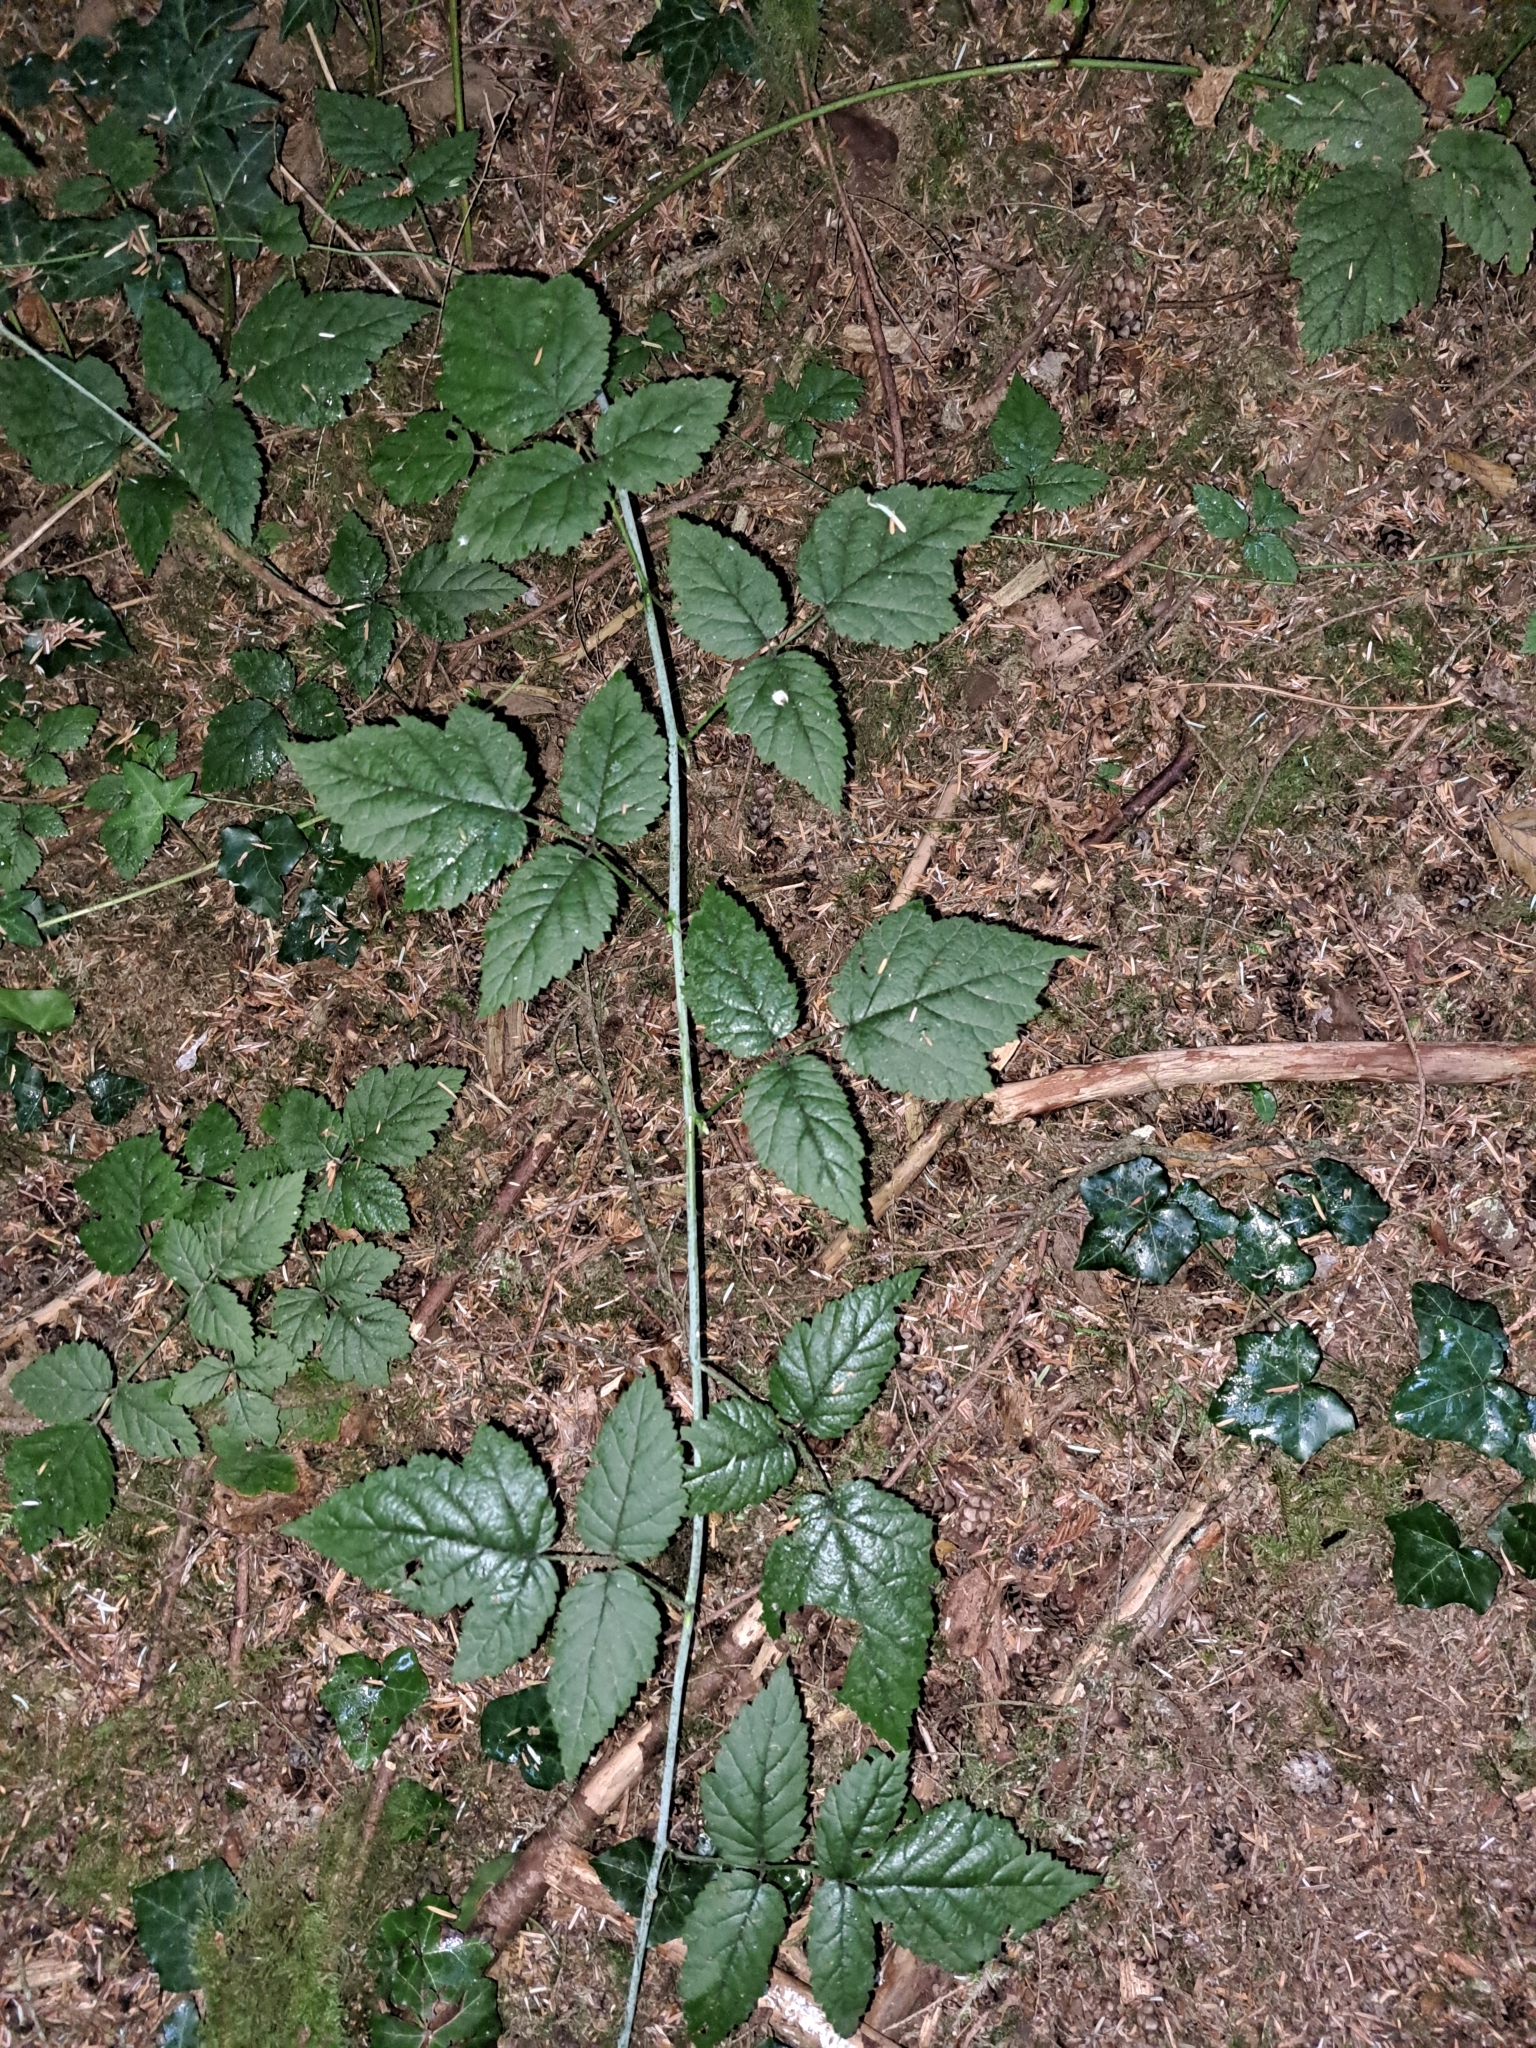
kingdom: Plantae
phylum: Tracheophyta
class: Magnoliopsida
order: Rosales
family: Rosaceae
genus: Rubus
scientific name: Rubus ursinus
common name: Pacific blackberry
